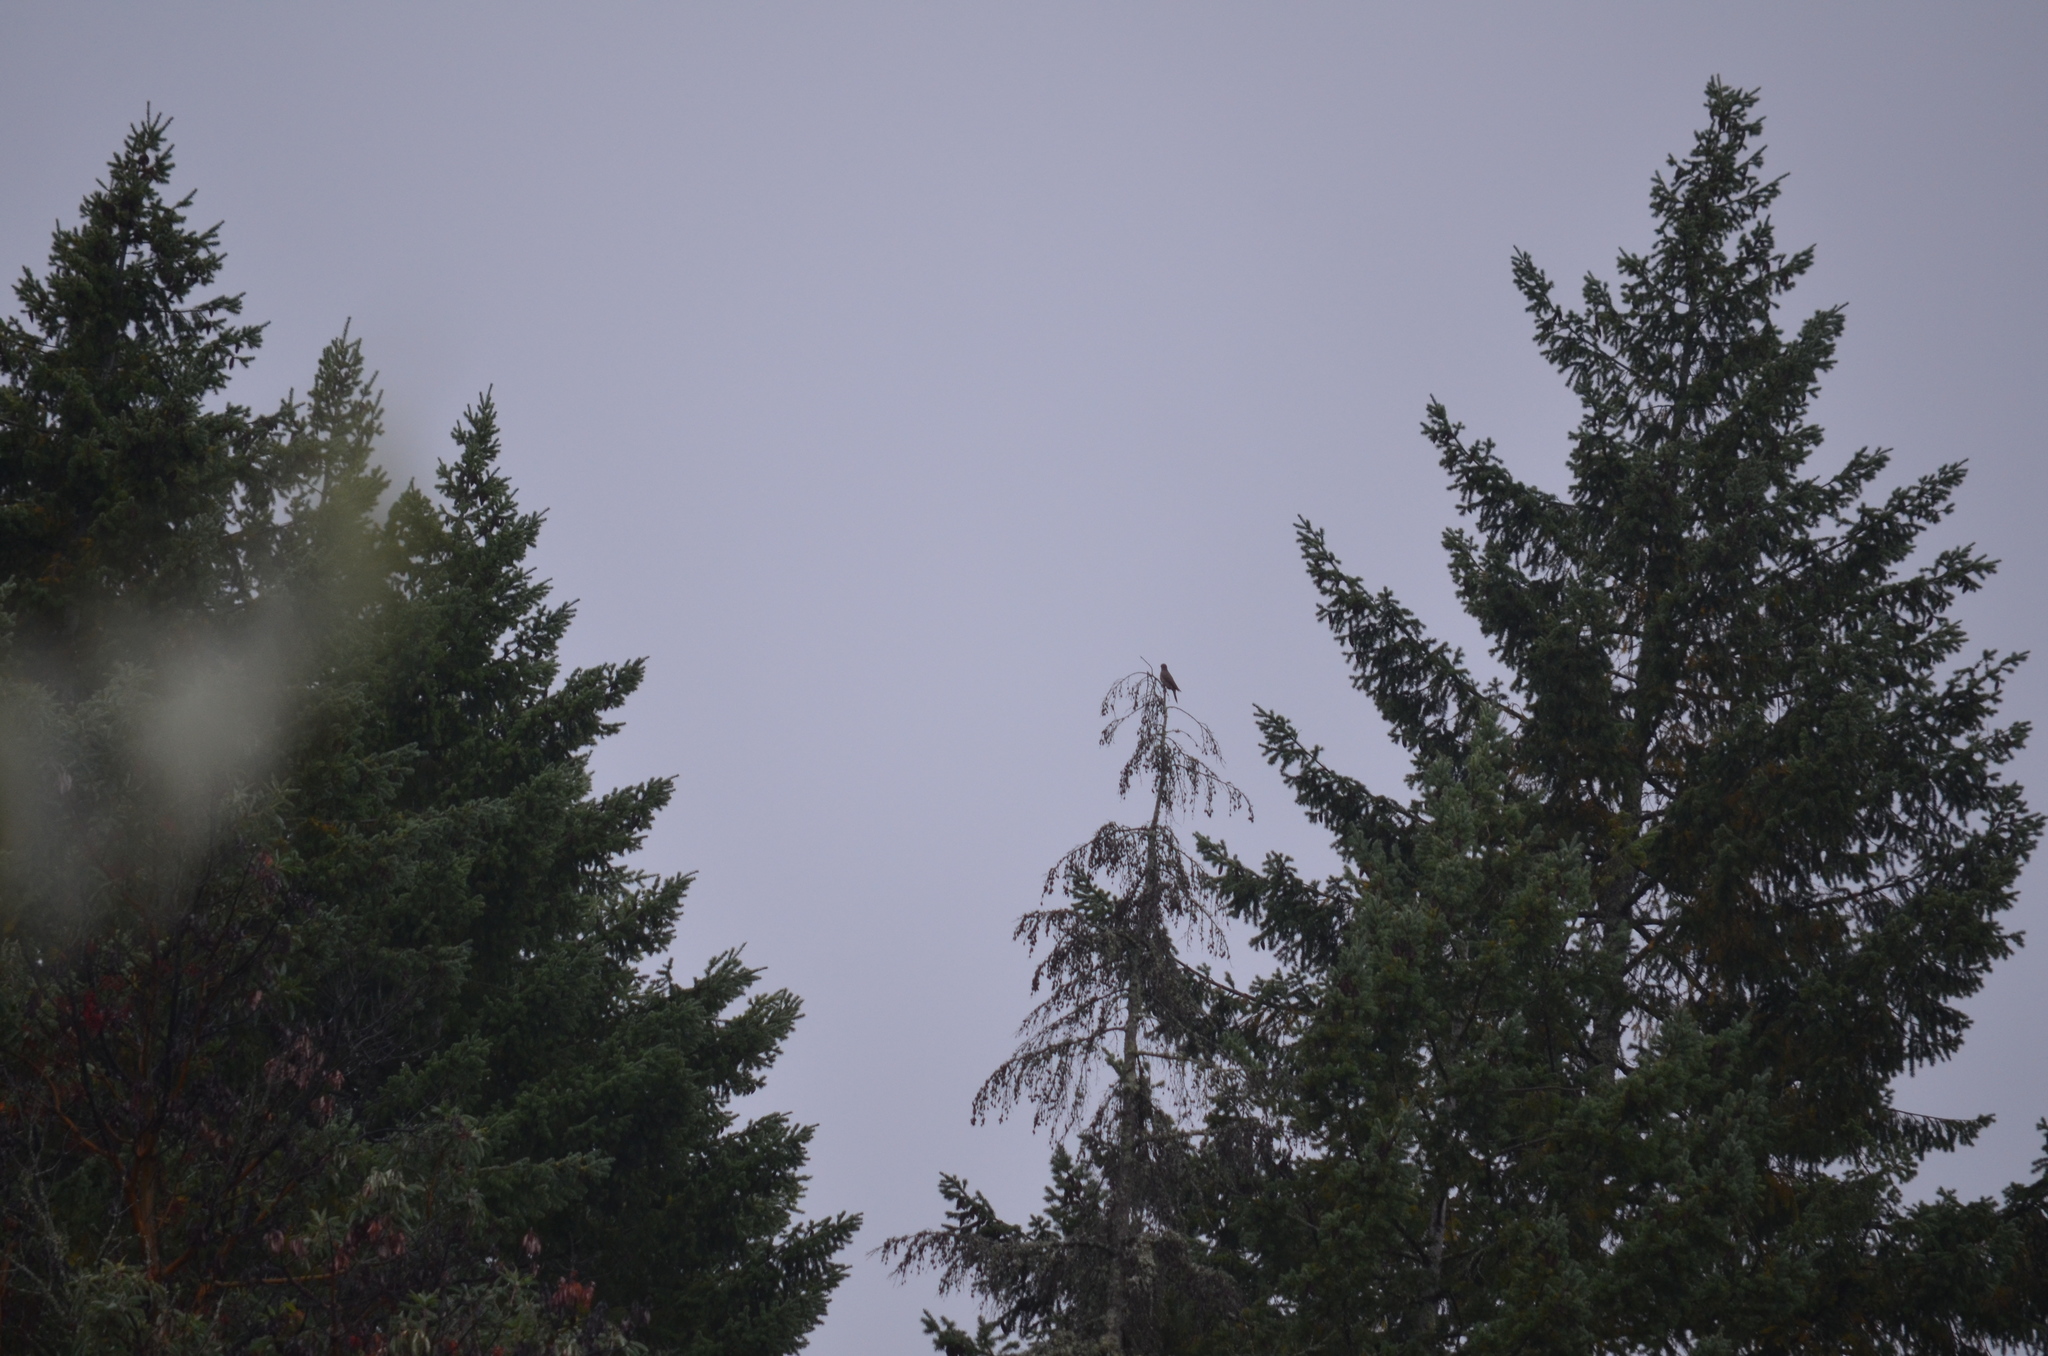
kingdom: Animalia
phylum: Chordata
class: Aves
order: Piciformes
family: Picidae
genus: Colaptes
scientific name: Colaptes auratus
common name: Northern flicker
